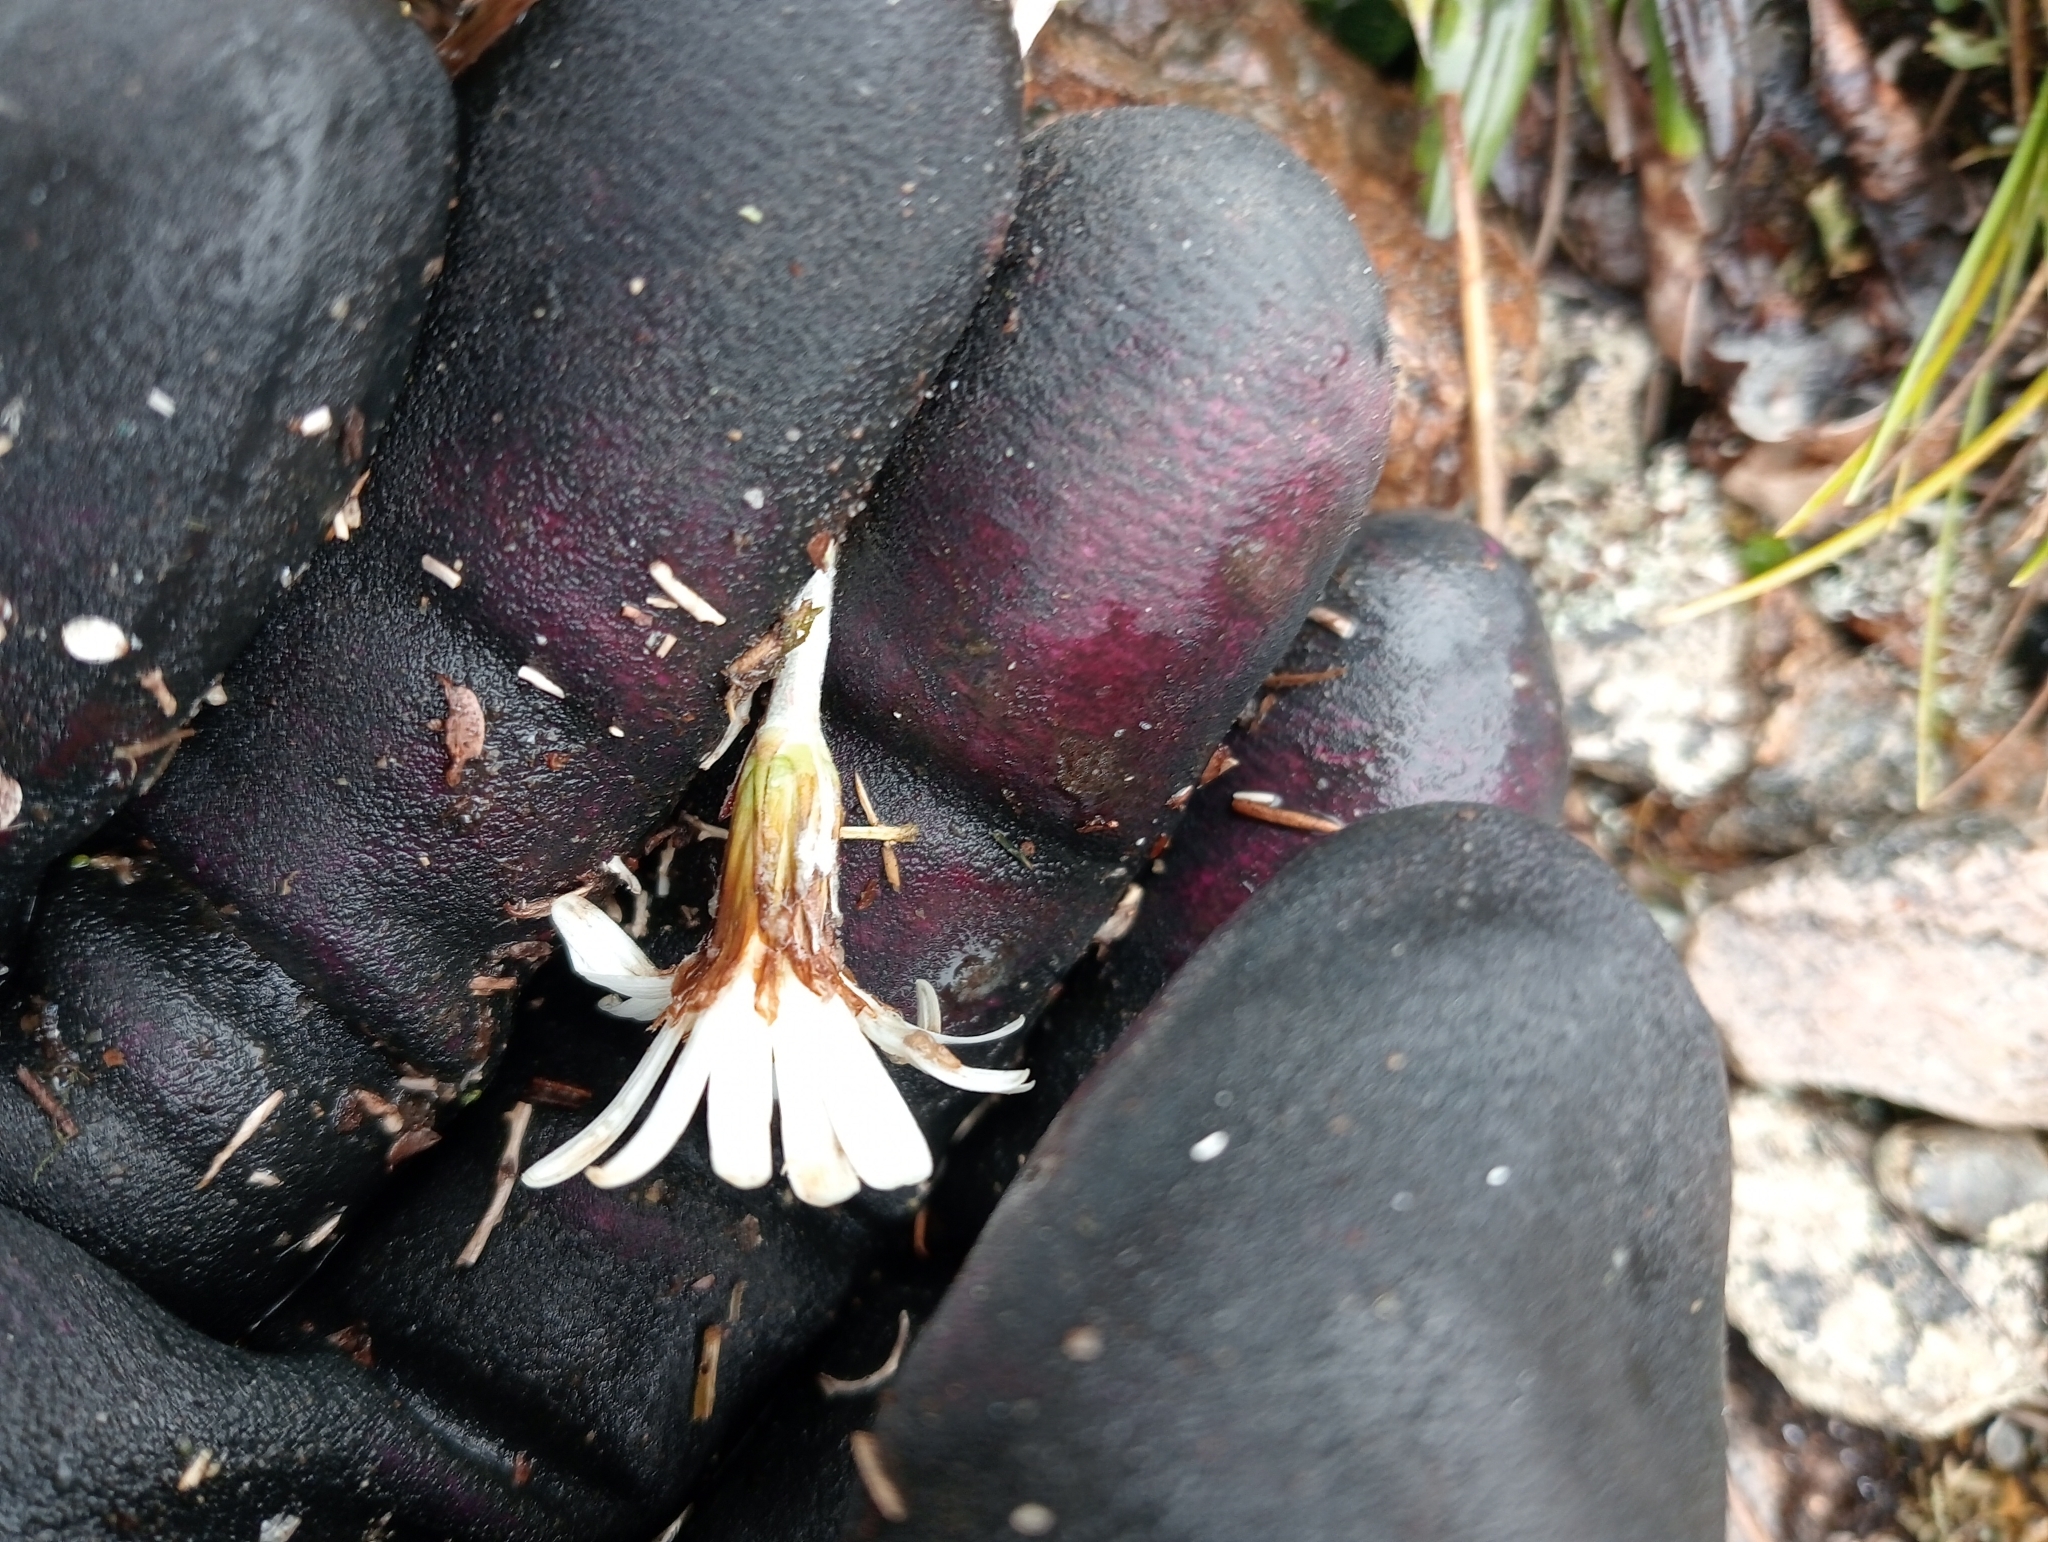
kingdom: Plantae
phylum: Tracheophyta
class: Magnoliopsida
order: Asterales
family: Asteraceae
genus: Celmisia
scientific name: Celmisia dubia
